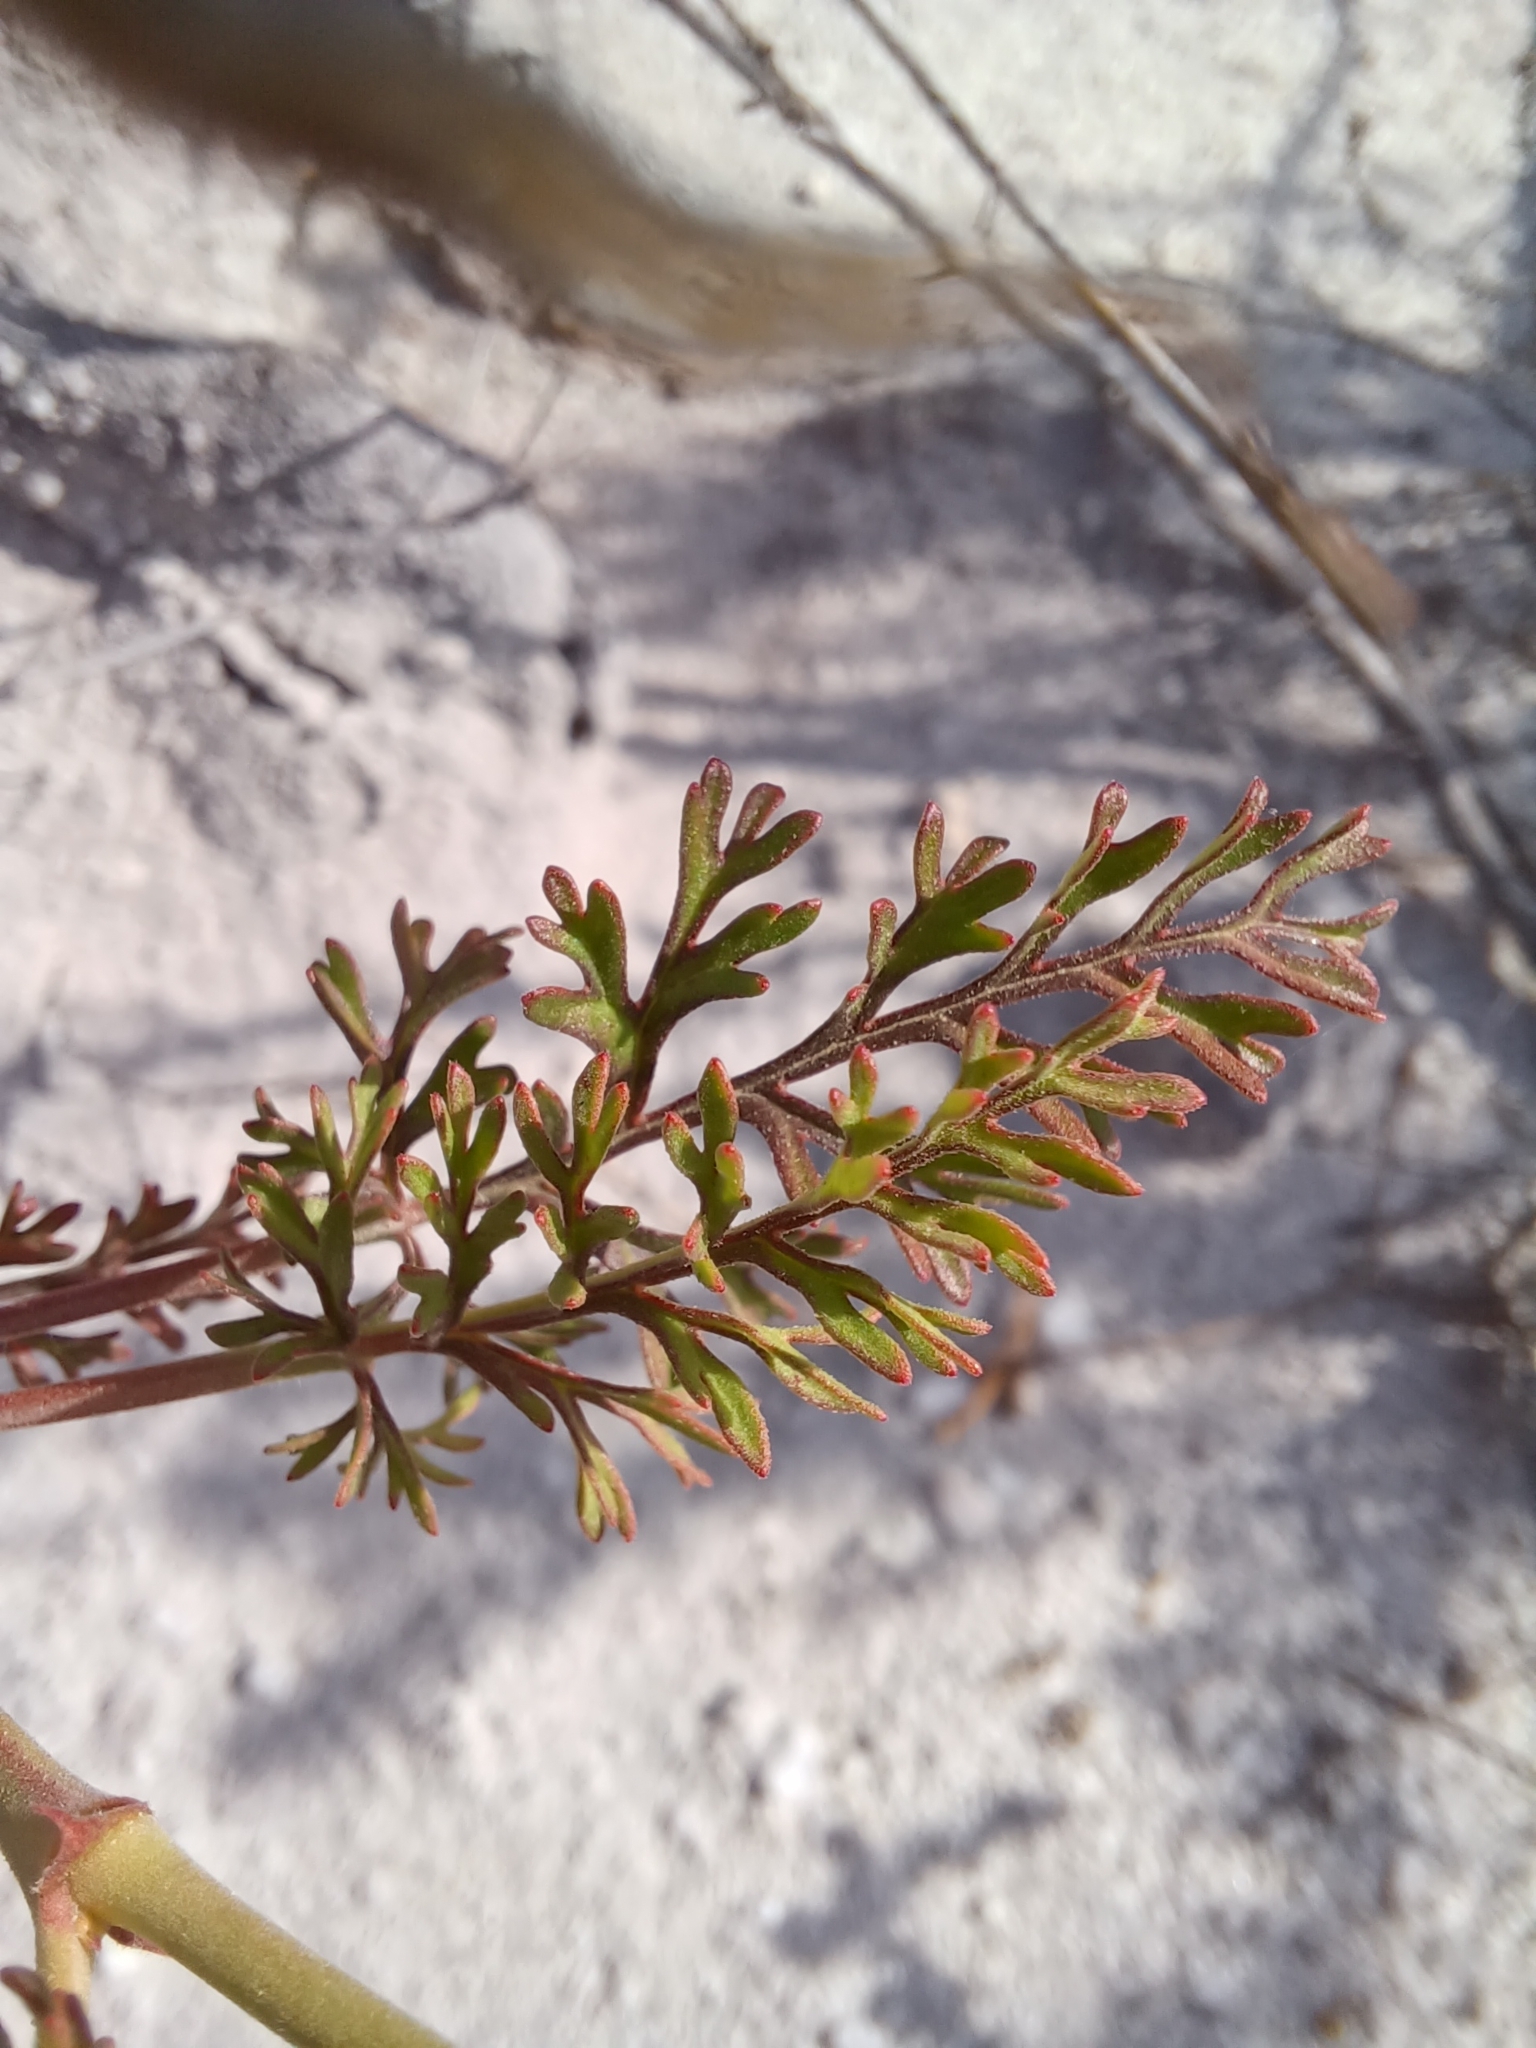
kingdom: Plantae
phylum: Tracheophyta
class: Magnoliopsida
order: Geraniales
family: Geraniaceae
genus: Pelargonium
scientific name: Pelargonium caucalifolium
